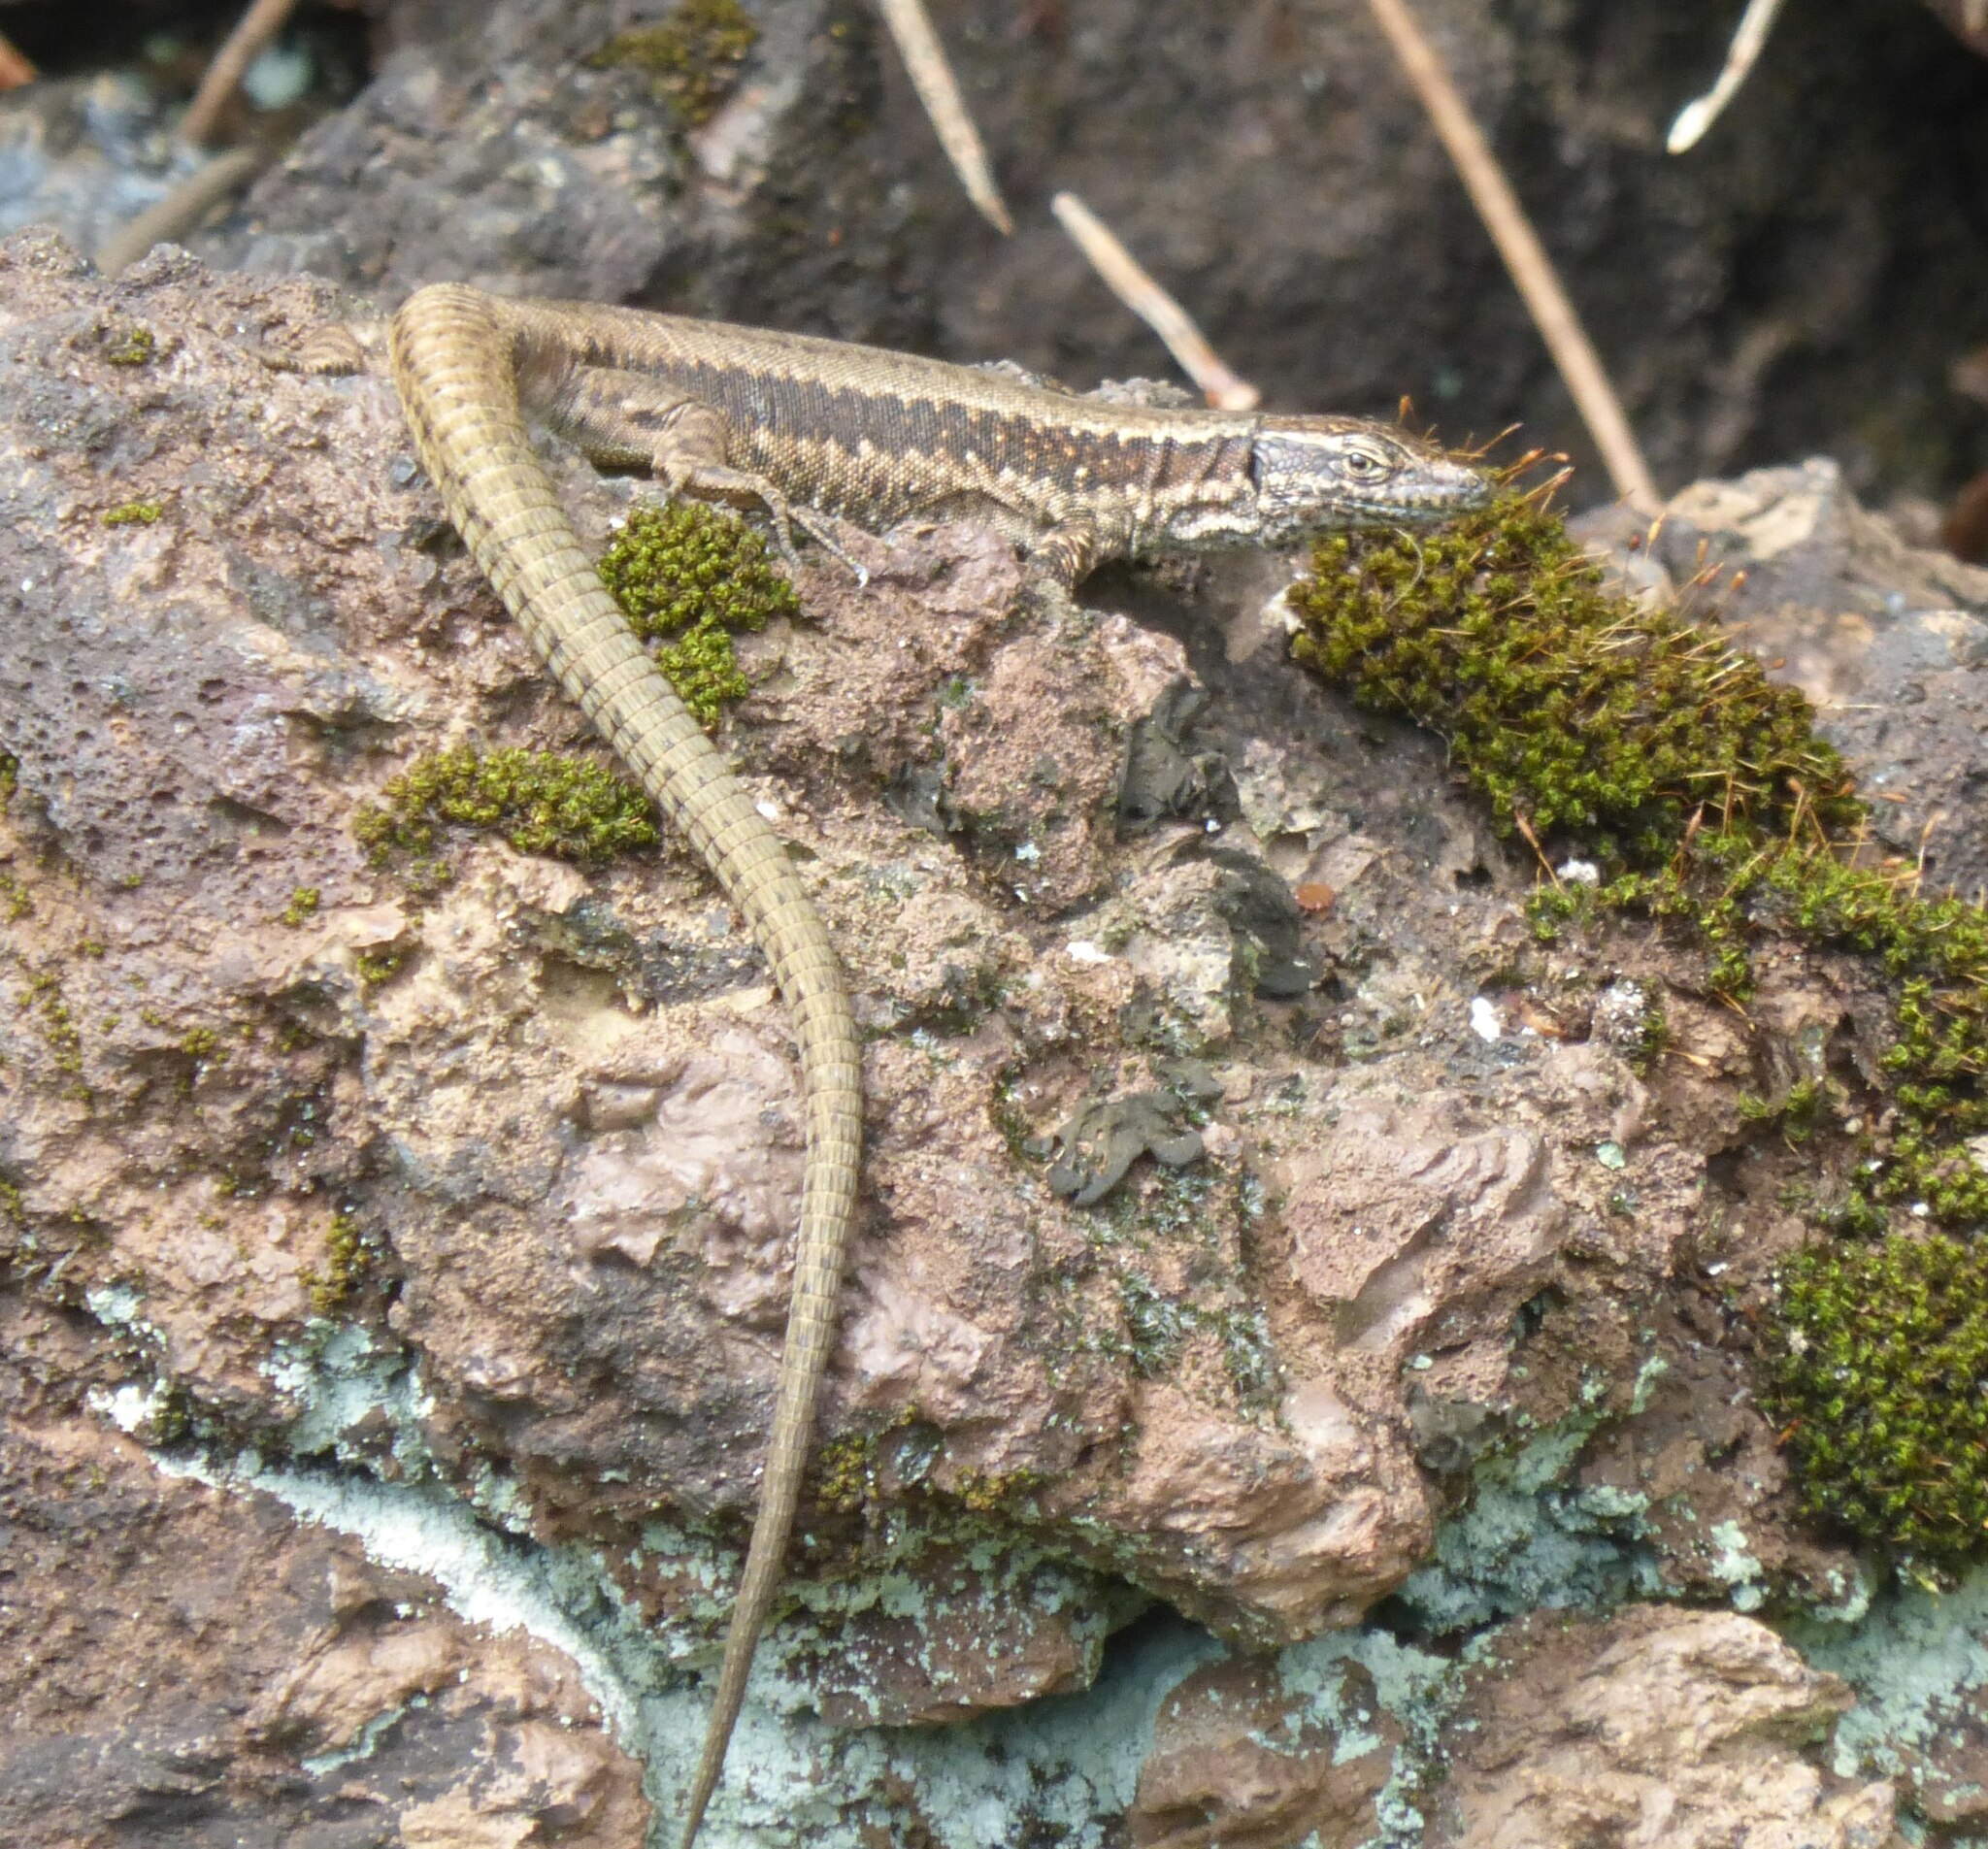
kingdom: Animalia
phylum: Chordata
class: Squamata
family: Lacertidae
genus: Teira
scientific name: Teira dugesii
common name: Madeira lizard
